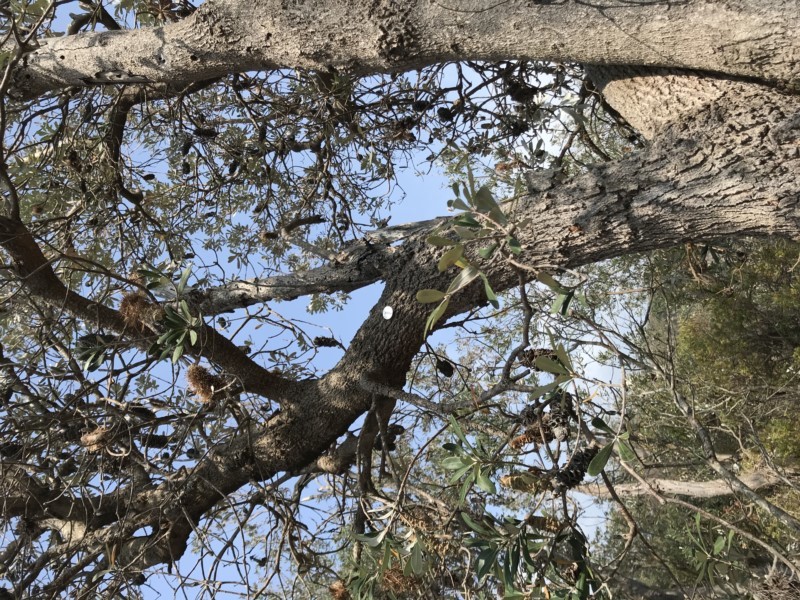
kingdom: Plantae
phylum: Tracheophyta
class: Magnoliopsida
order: Proteales
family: Proteaceae
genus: Banksia
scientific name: Banksia integrifolia
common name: White-honeysuckle
